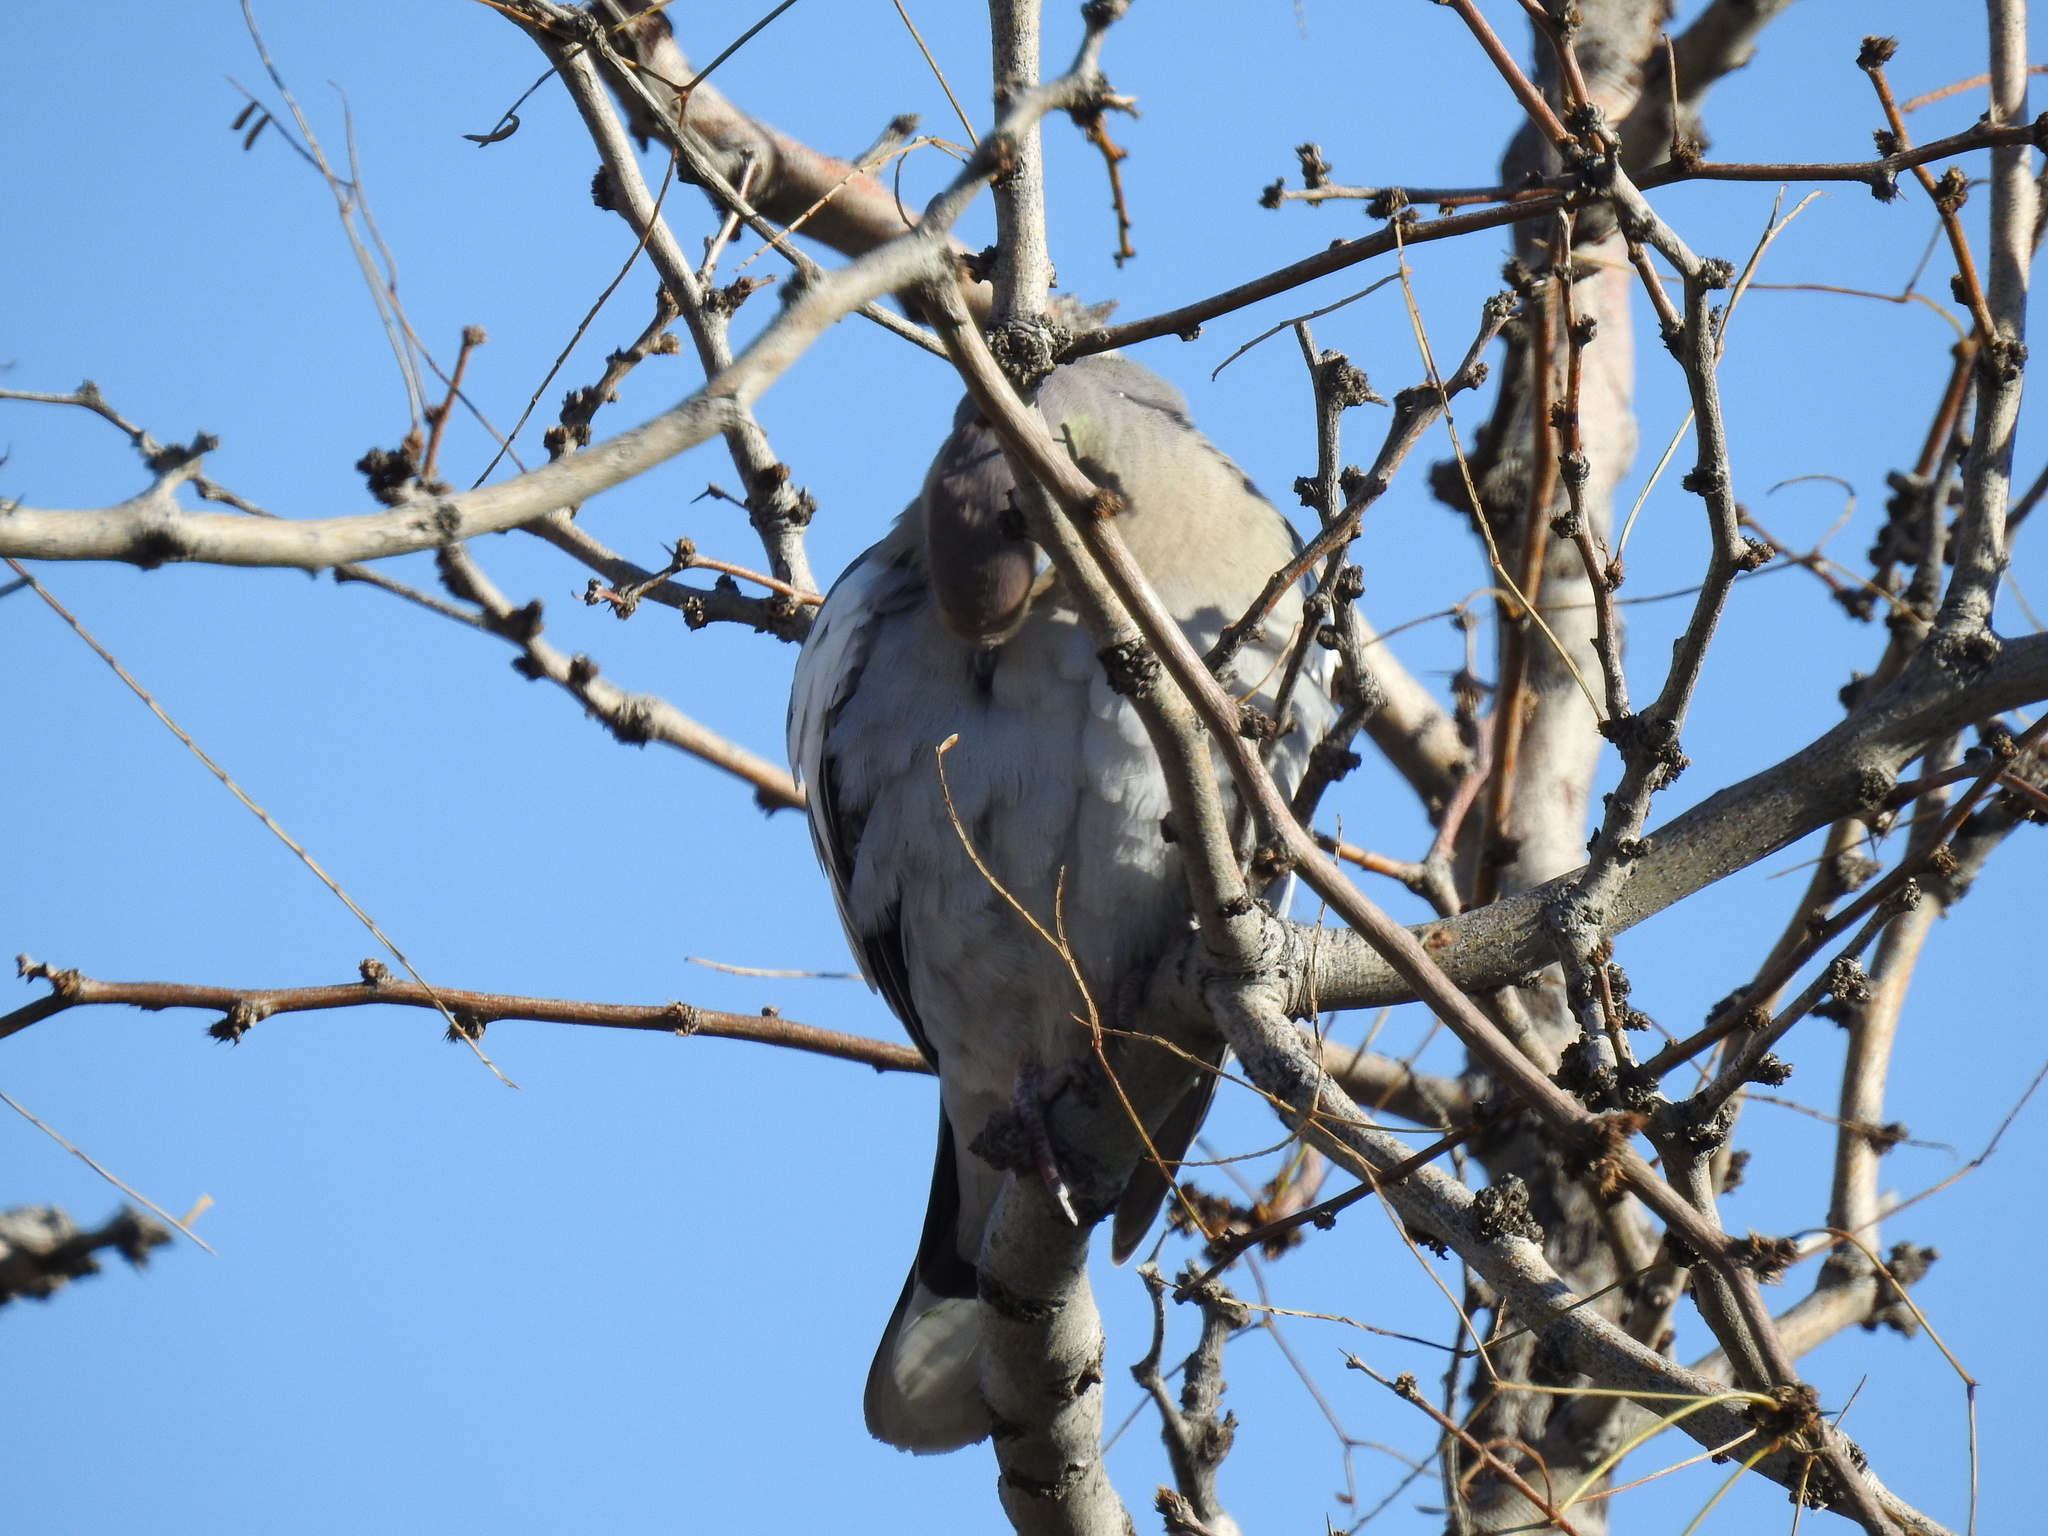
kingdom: Animalia
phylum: Chordata
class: Aves
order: Columbiformes
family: Columbidae
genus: Zenaida
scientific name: Zenaida asiatica
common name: White-winged dove
